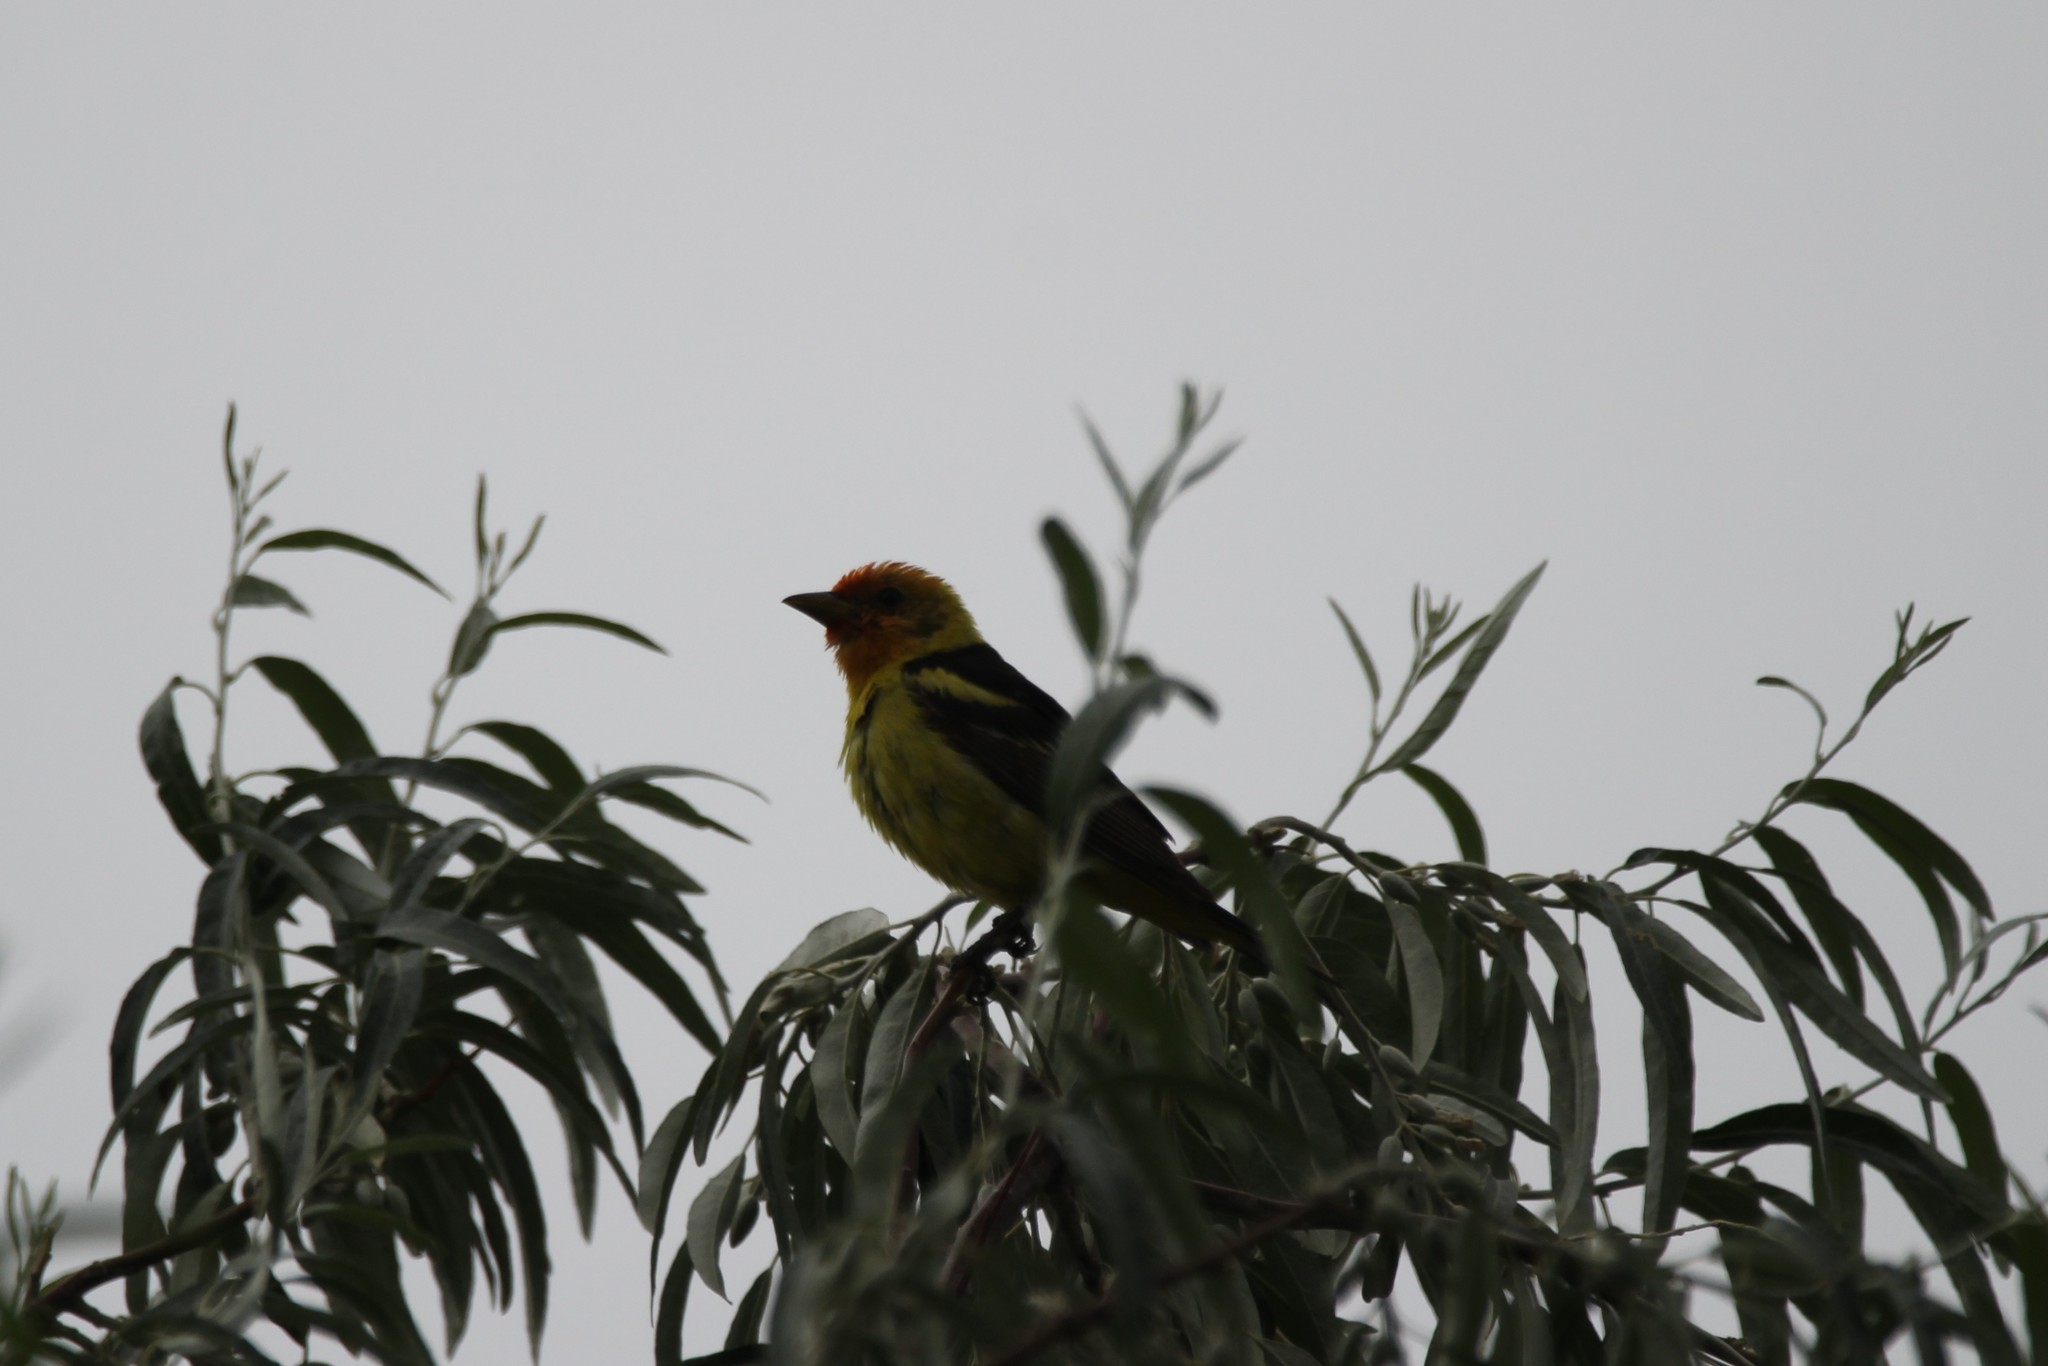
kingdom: Animalia
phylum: Chordata
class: Aves
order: Passeriformes
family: Cardinalidae
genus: Piranga
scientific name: Piranga ludoviciana
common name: Western tanager
